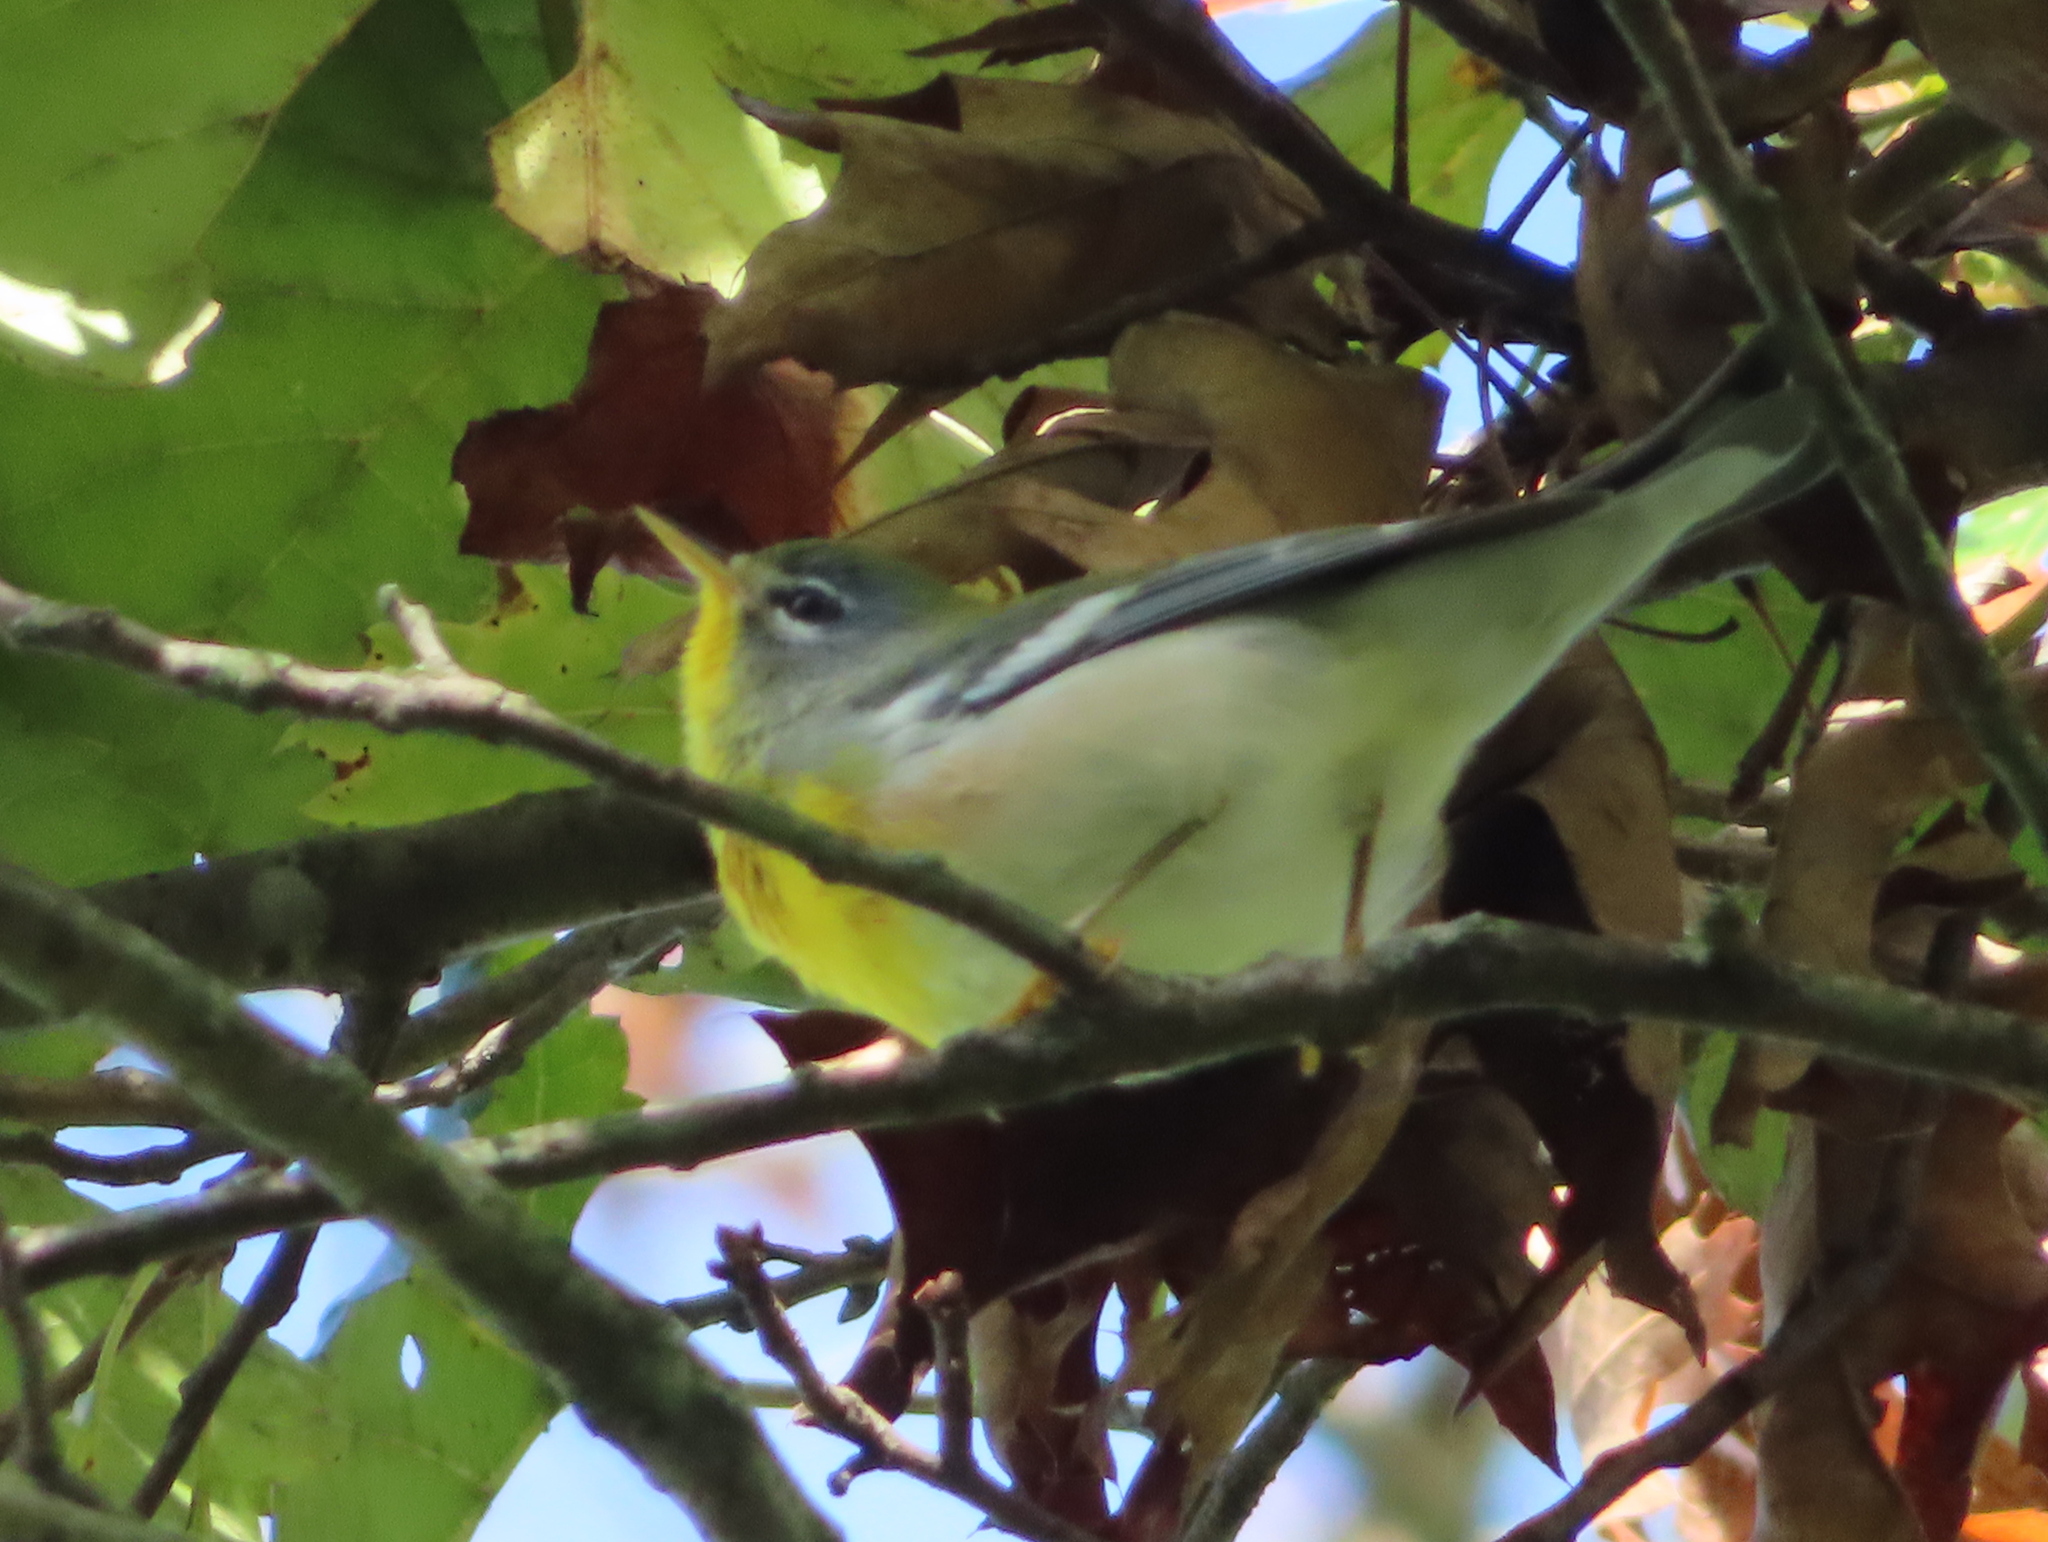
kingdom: Animalia
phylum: Chordata
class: Aves
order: Passeriformes
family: Parulidae
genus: Setophaga
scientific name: Setophaga americana
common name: Northern parula
